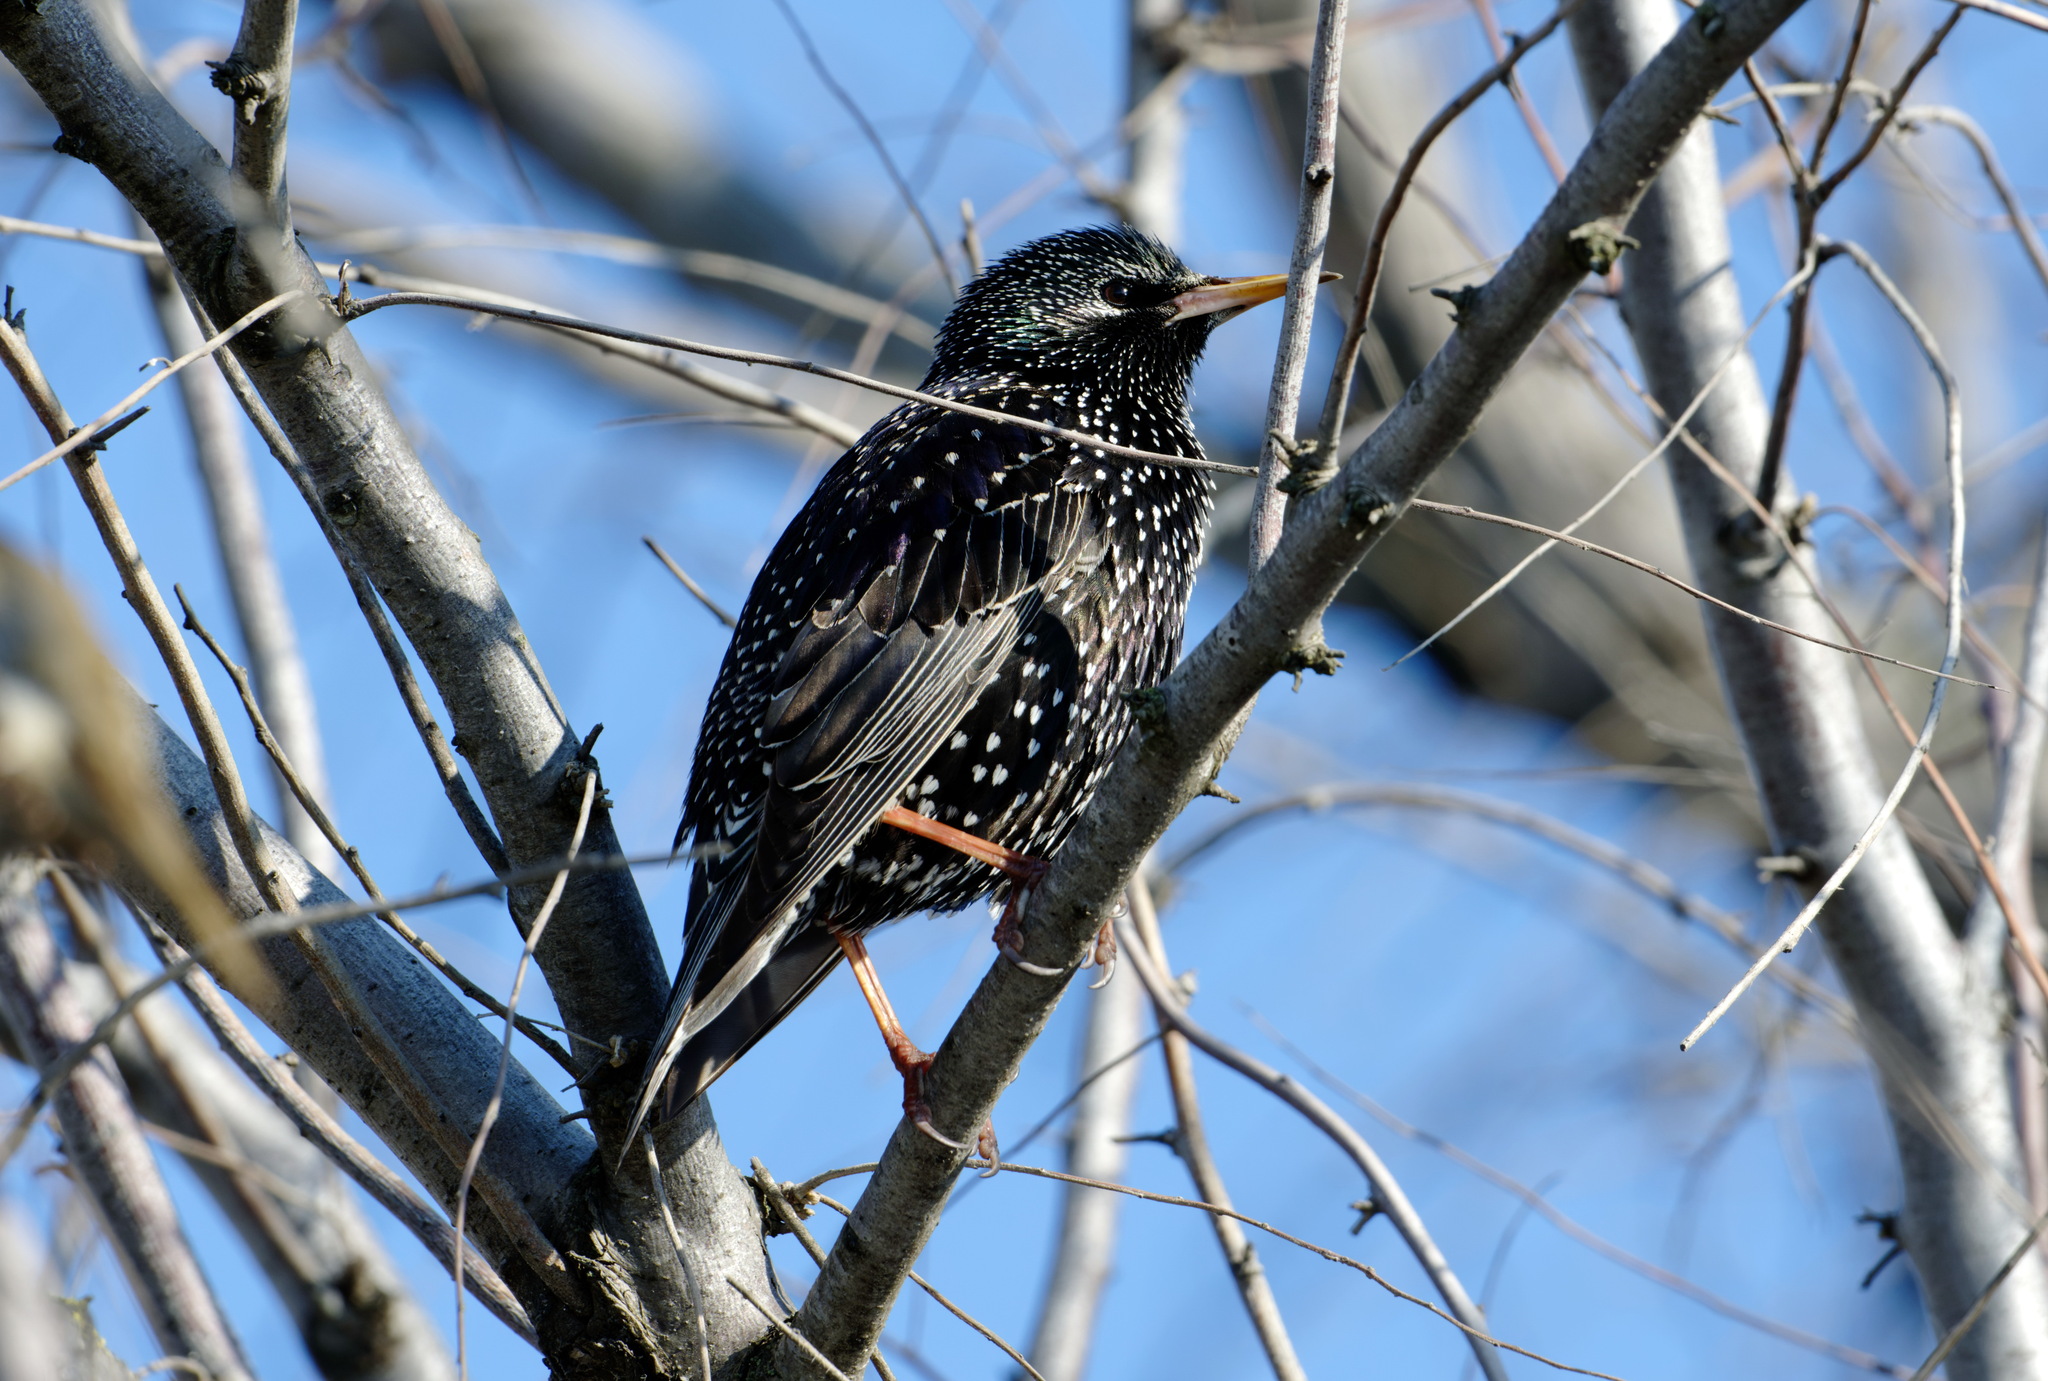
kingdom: Animalia
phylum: Chordata
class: Aves
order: Passeriformes
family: Sturnidae
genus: Sturnus
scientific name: Sturnus vulgaris
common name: Common starling
